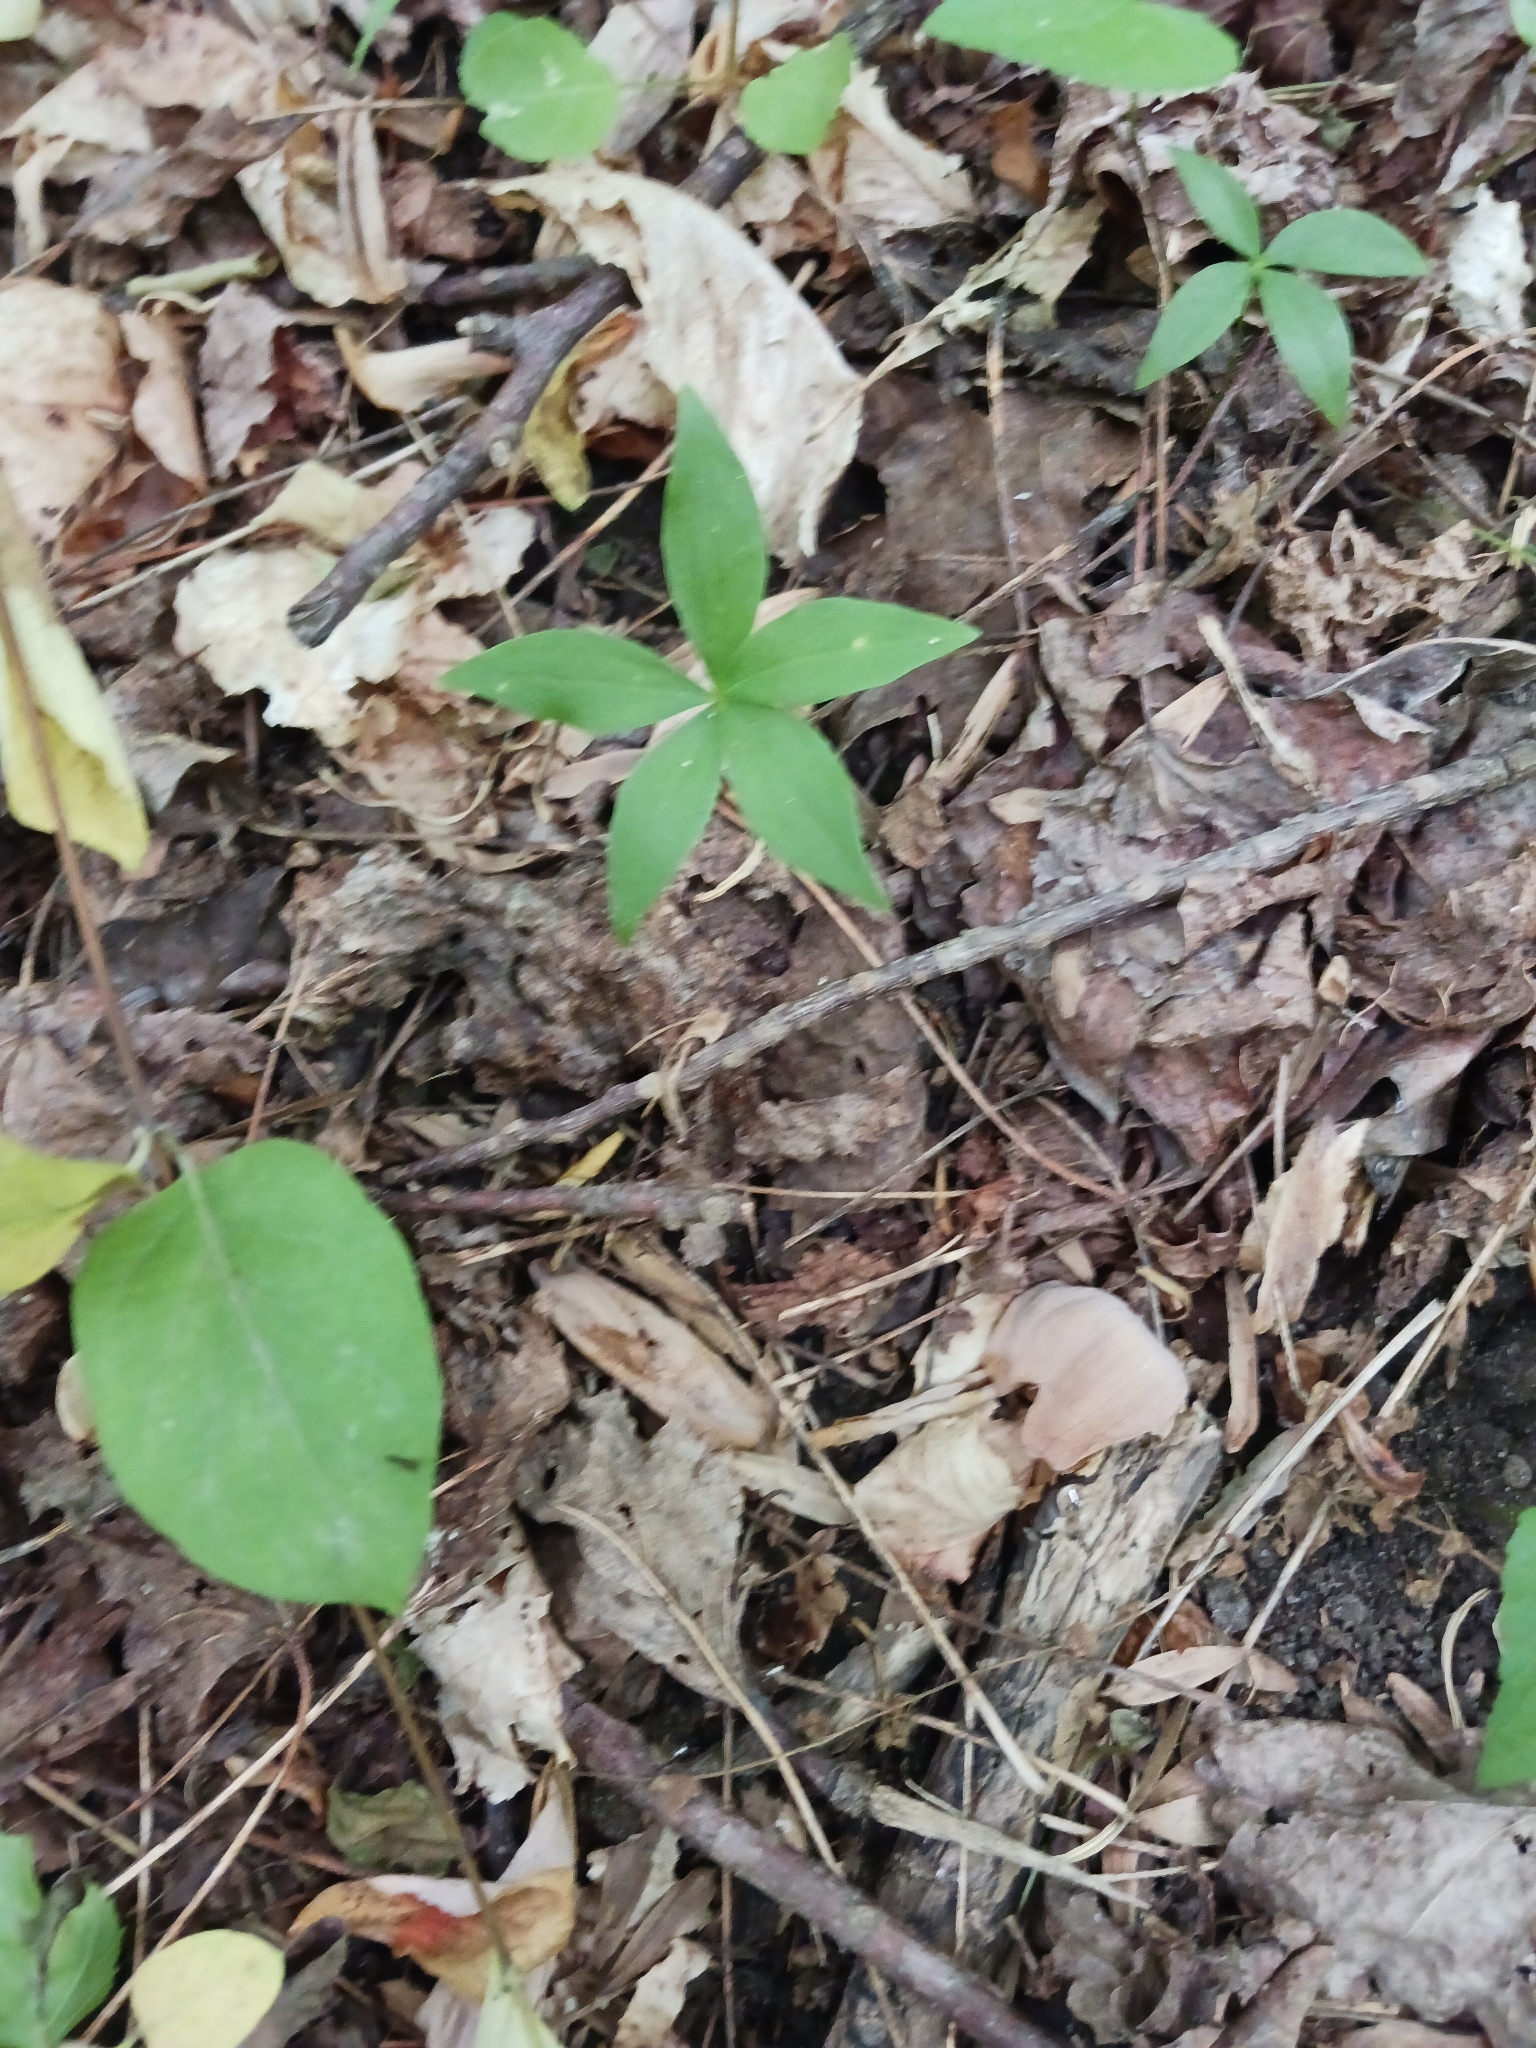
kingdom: Plantae
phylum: Tracheophyta
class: Liliopsida
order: Liliales
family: Liliaceae
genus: Medeola
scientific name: Medeola virginiana
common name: Indian cucumber-root
